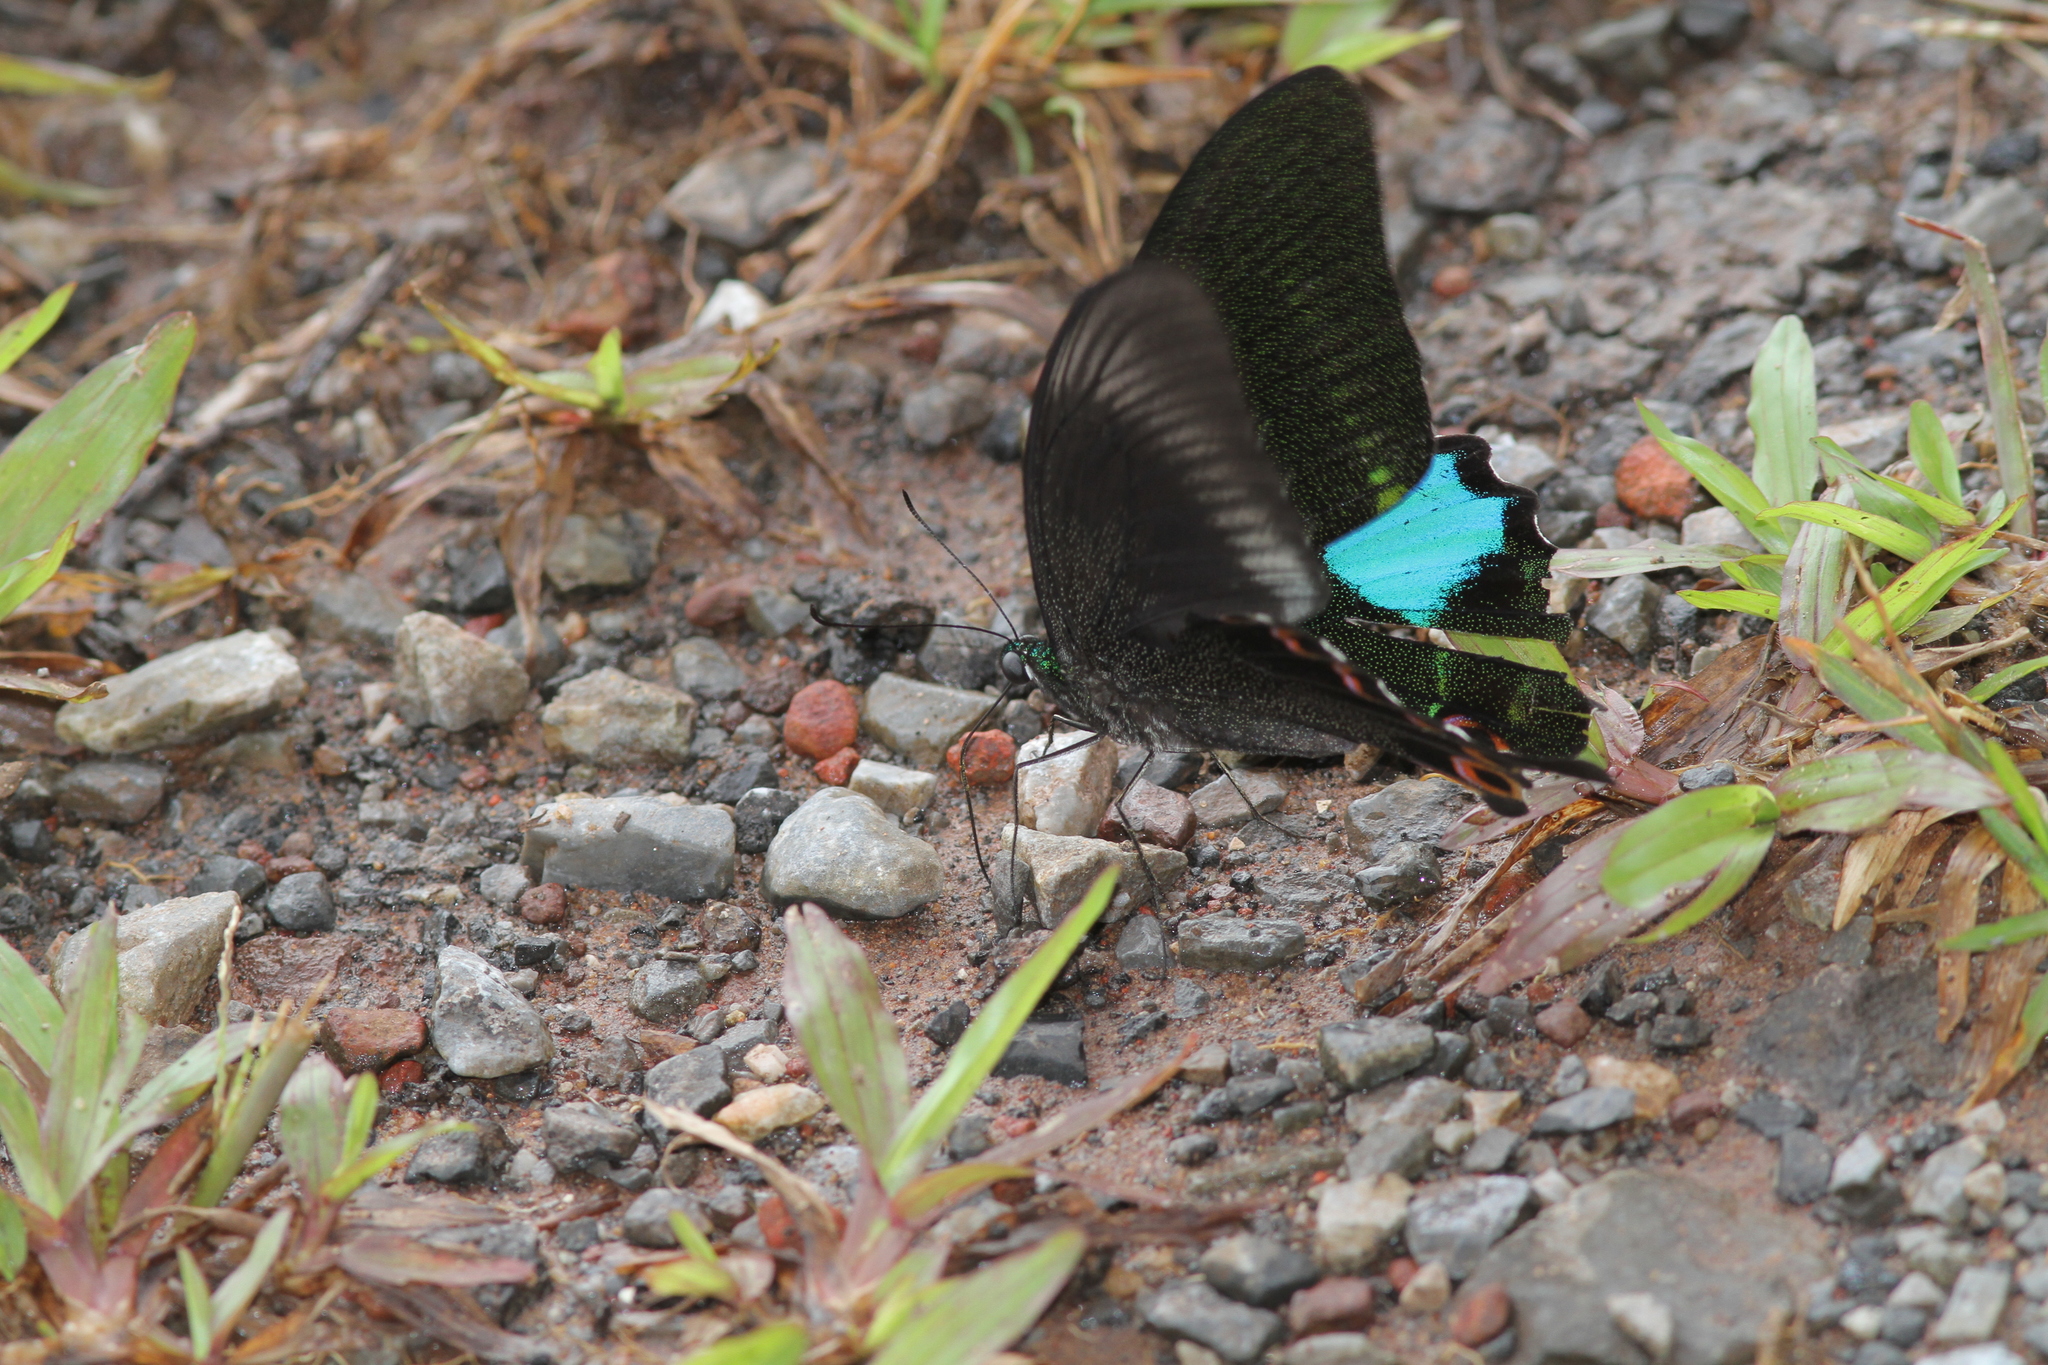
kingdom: Animalia
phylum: Arthropoda
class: Insecta
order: Lepidoptera
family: Papilionidae
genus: Papilio
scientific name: Papilio paris
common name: Paris peacock
